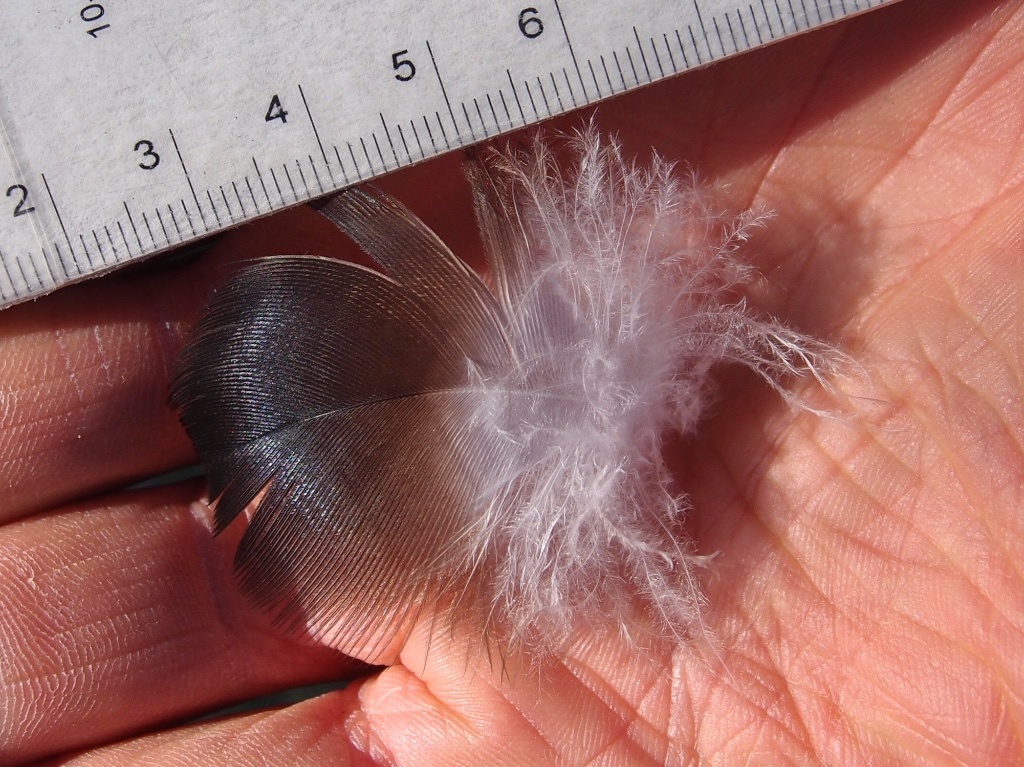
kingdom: Animalia
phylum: Chordata
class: Aves
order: Accipitriformes
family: Cathartidae
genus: Cathartes
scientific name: Cathartes aura
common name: Turkey vulture
